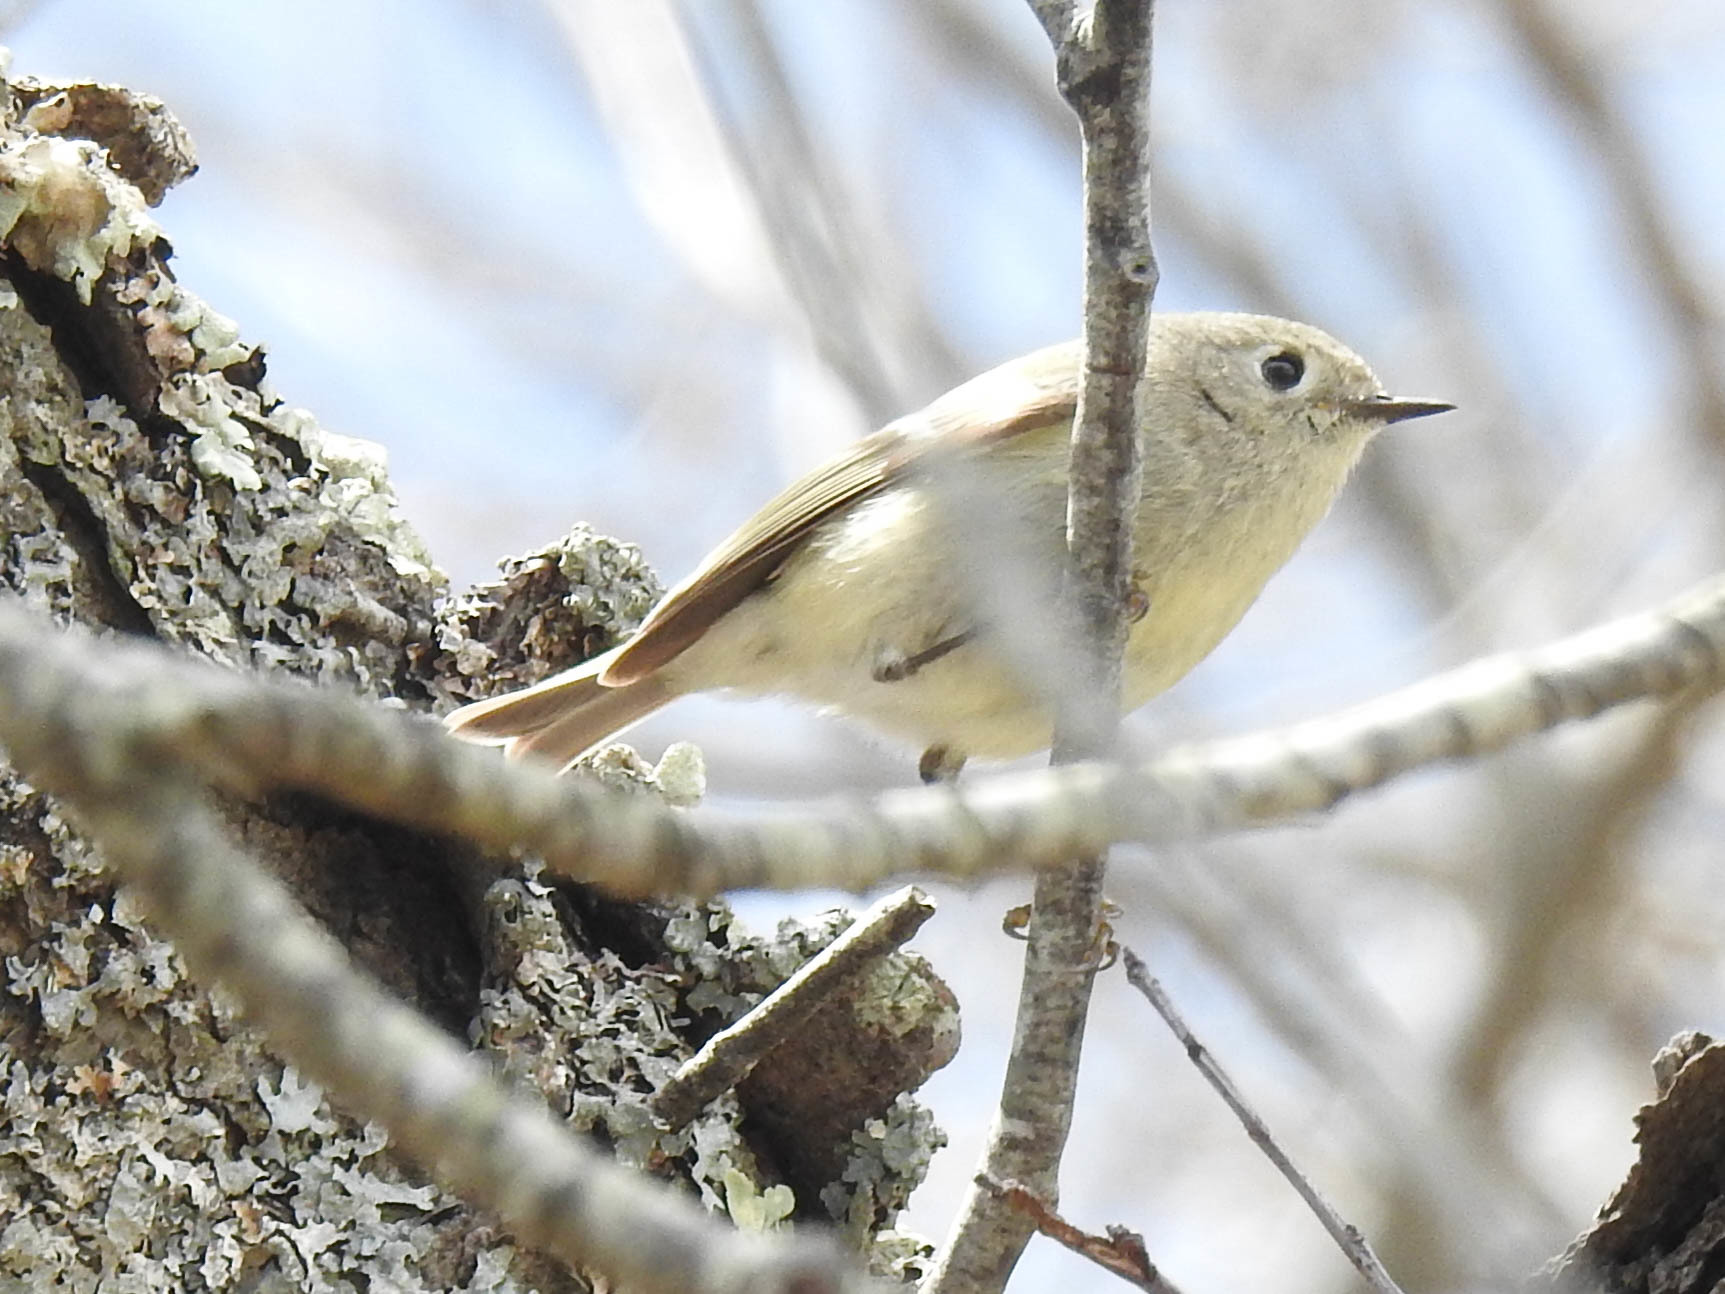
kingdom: Animalia
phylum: Chordata
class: Aves
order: Passeriformes
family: Regulidae
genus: Regulus
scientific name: Regulus calendula
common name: Ruby-crowned kinglet
